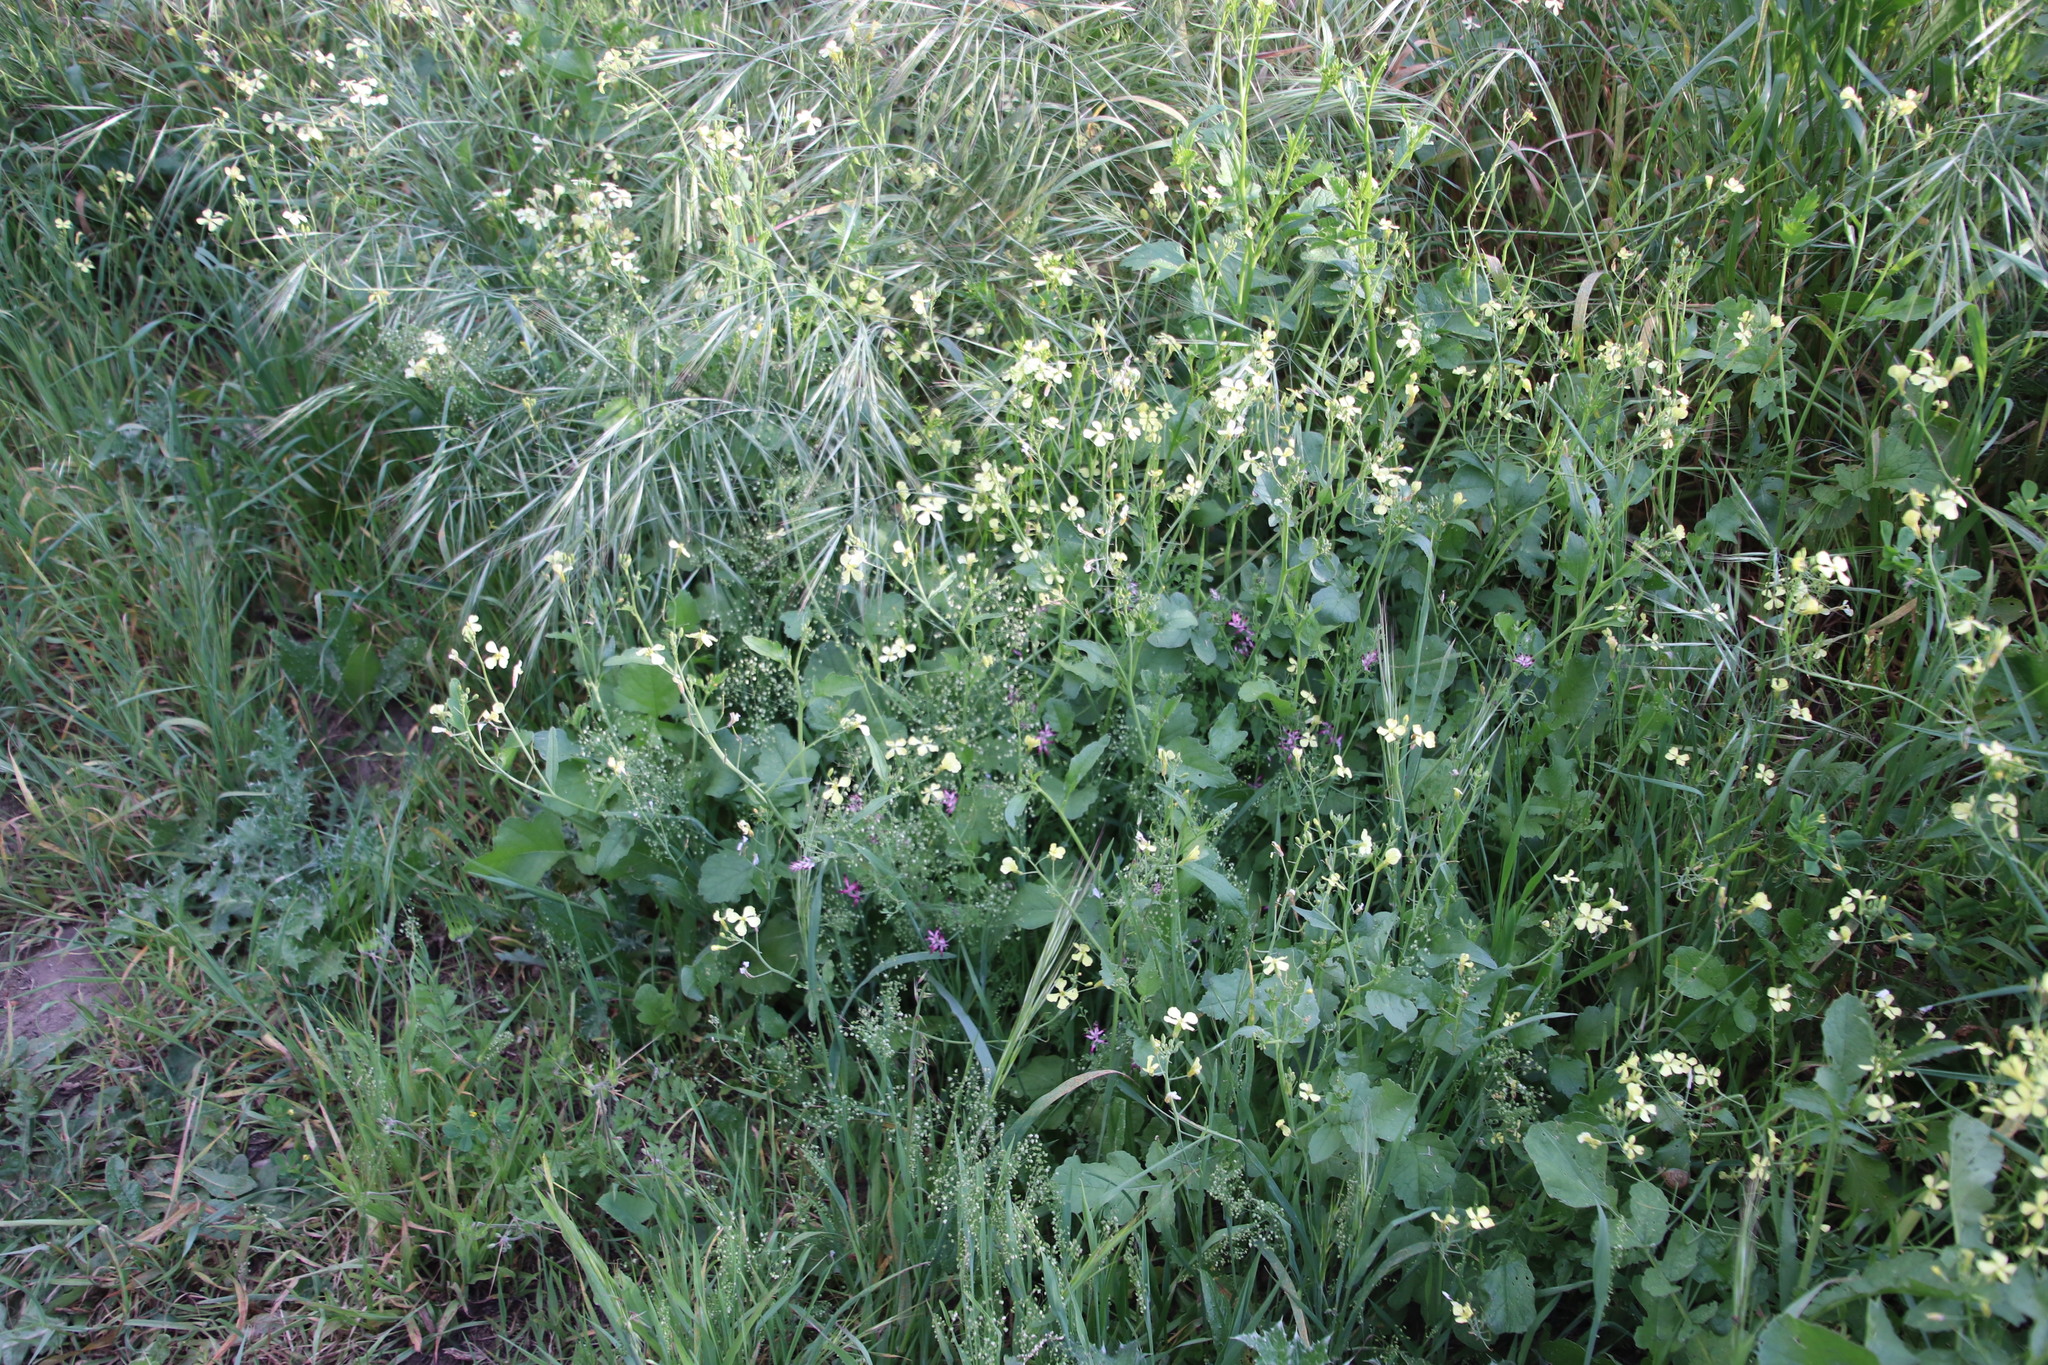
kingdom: Plantae
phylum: Tracheophyta
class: Liliopsida
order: Poales
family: Poaceae
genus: Briza
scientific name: Briza minor
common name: Lesser quaking-grass
